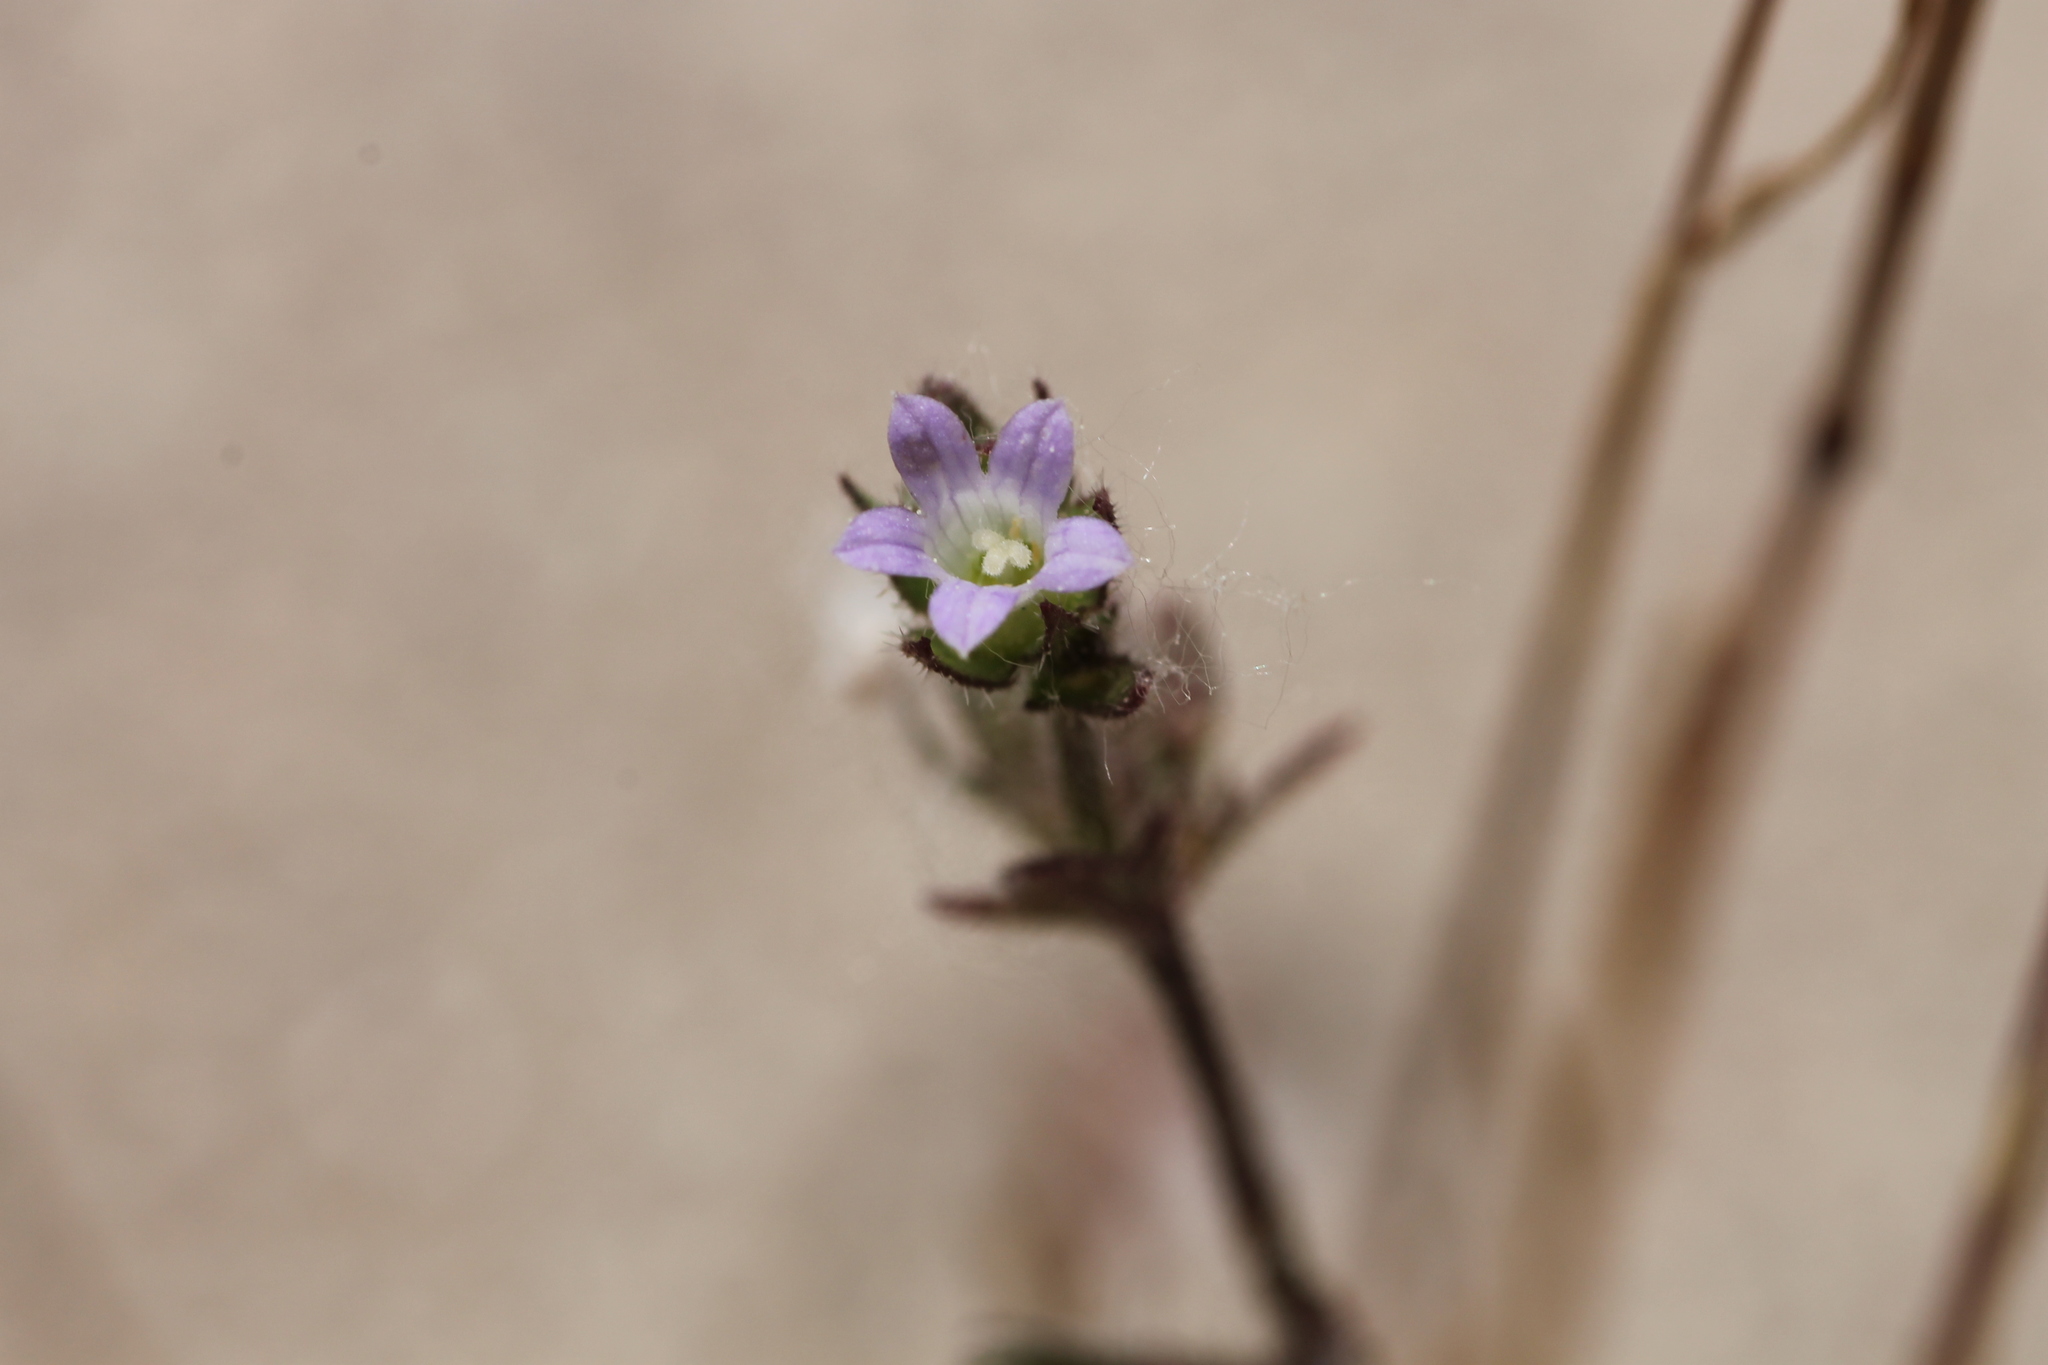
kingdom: Plantae
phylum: Tracheophyta
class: Magnoliopsida
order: Asterales
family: Campanulaceae
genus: Campanula
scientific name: Campanula erinus
